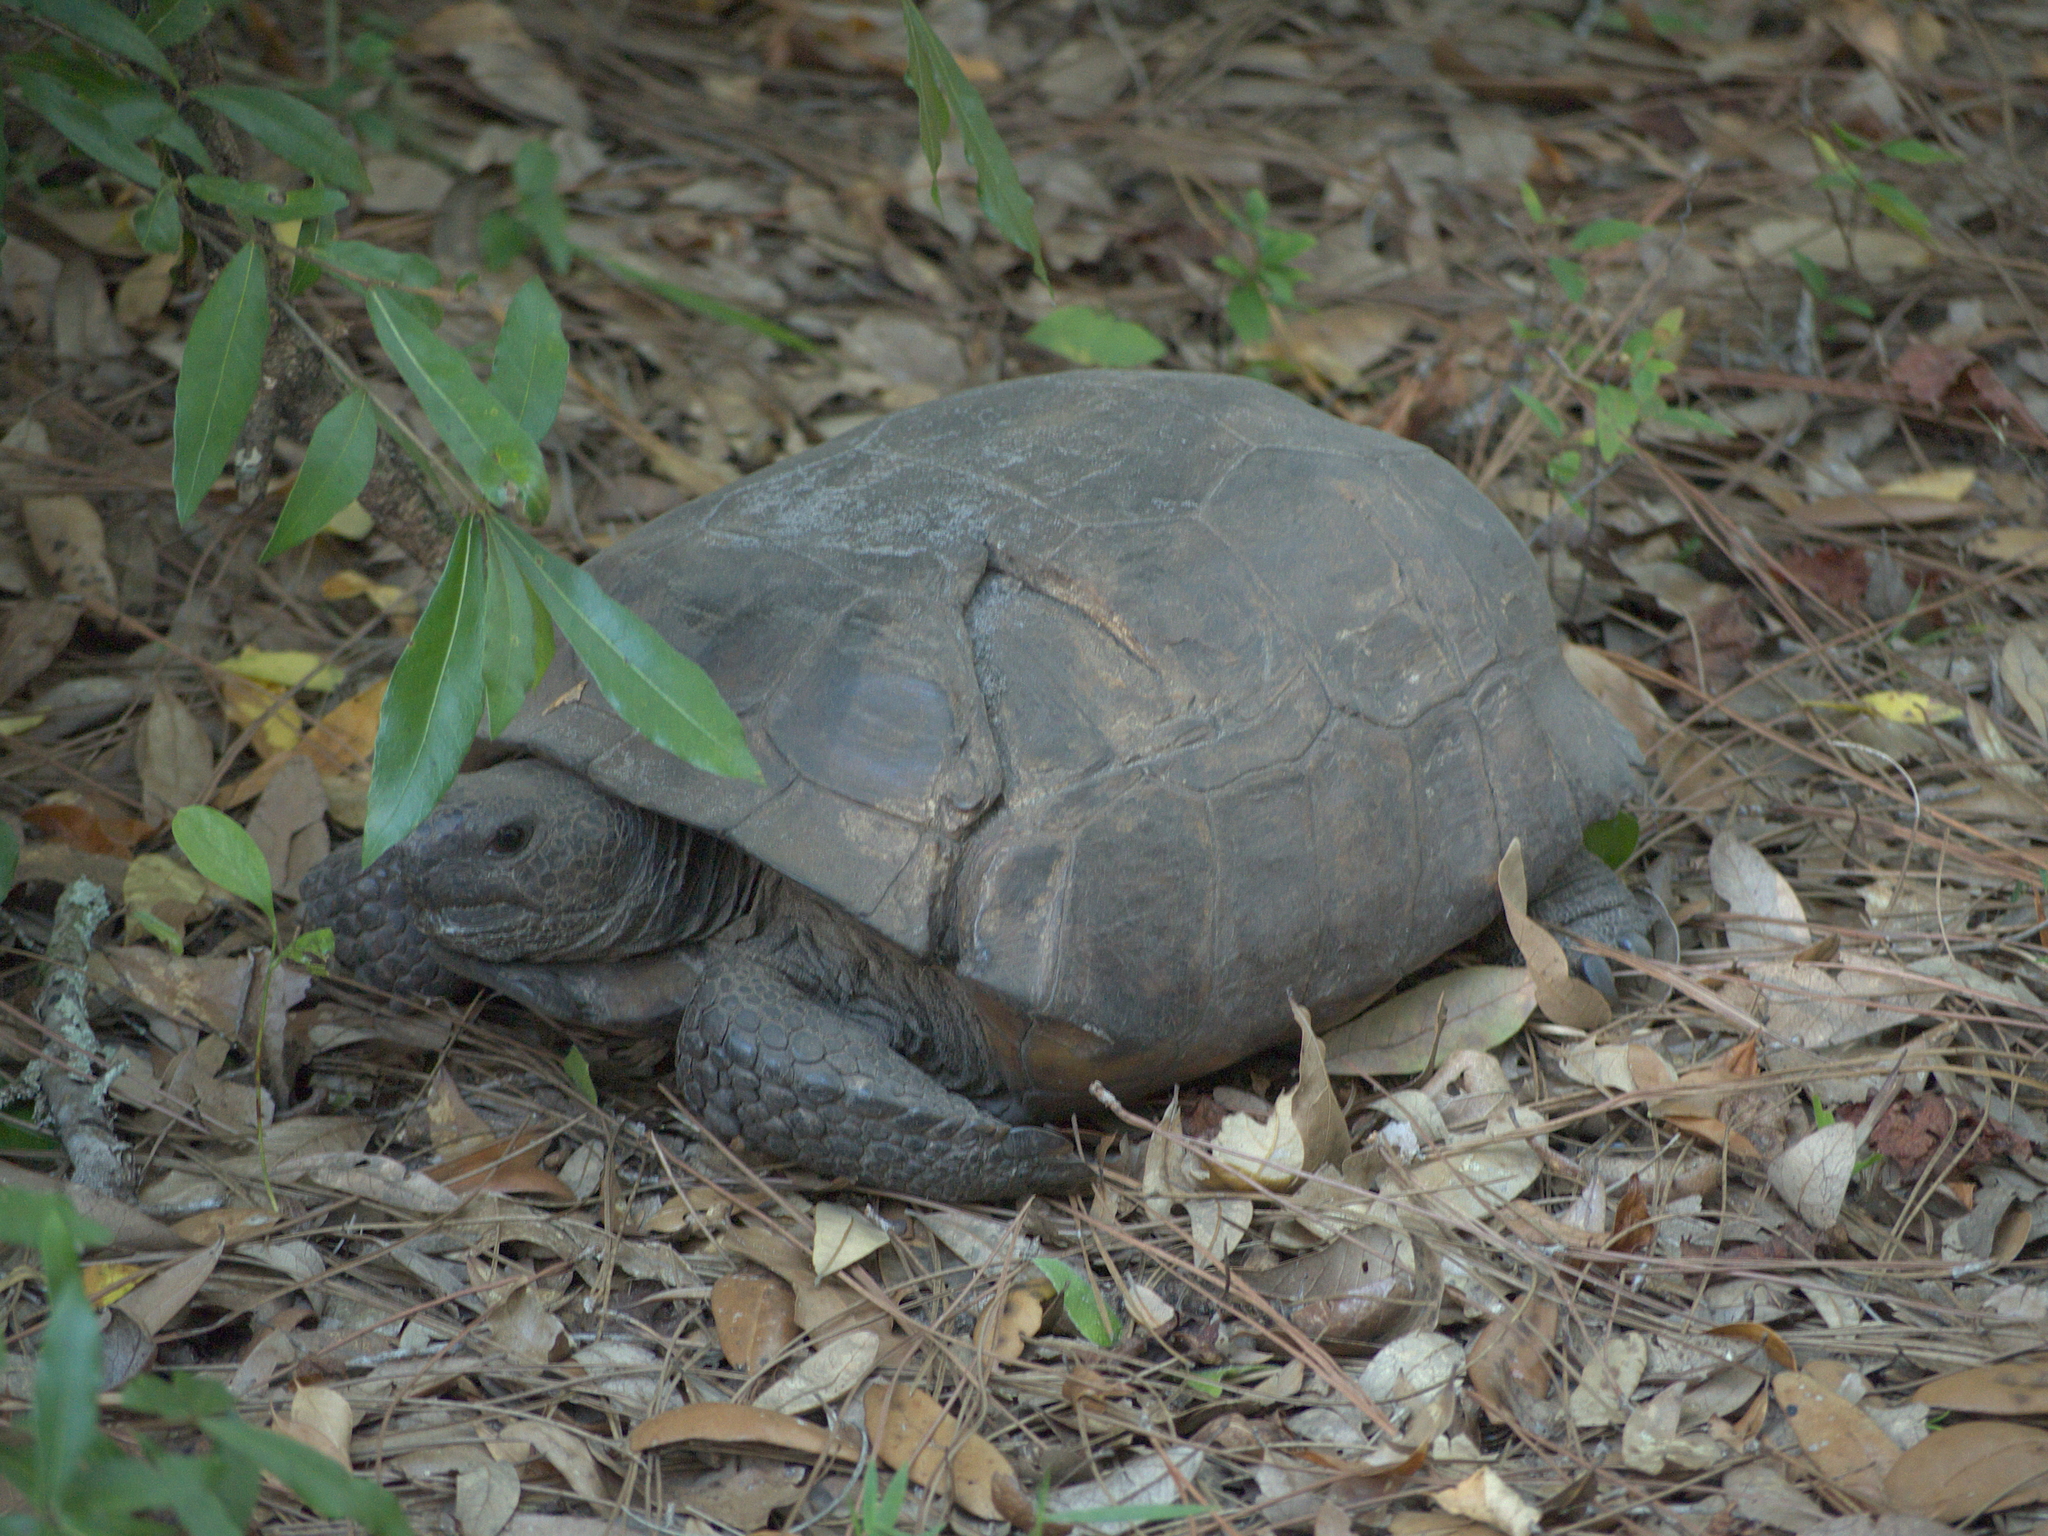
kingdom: Animalia
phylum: Chordata
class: Testudines
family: Testudinidae
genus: Gopherus
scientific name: Gopherus polyphemus
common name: Florida gopher tortoise
